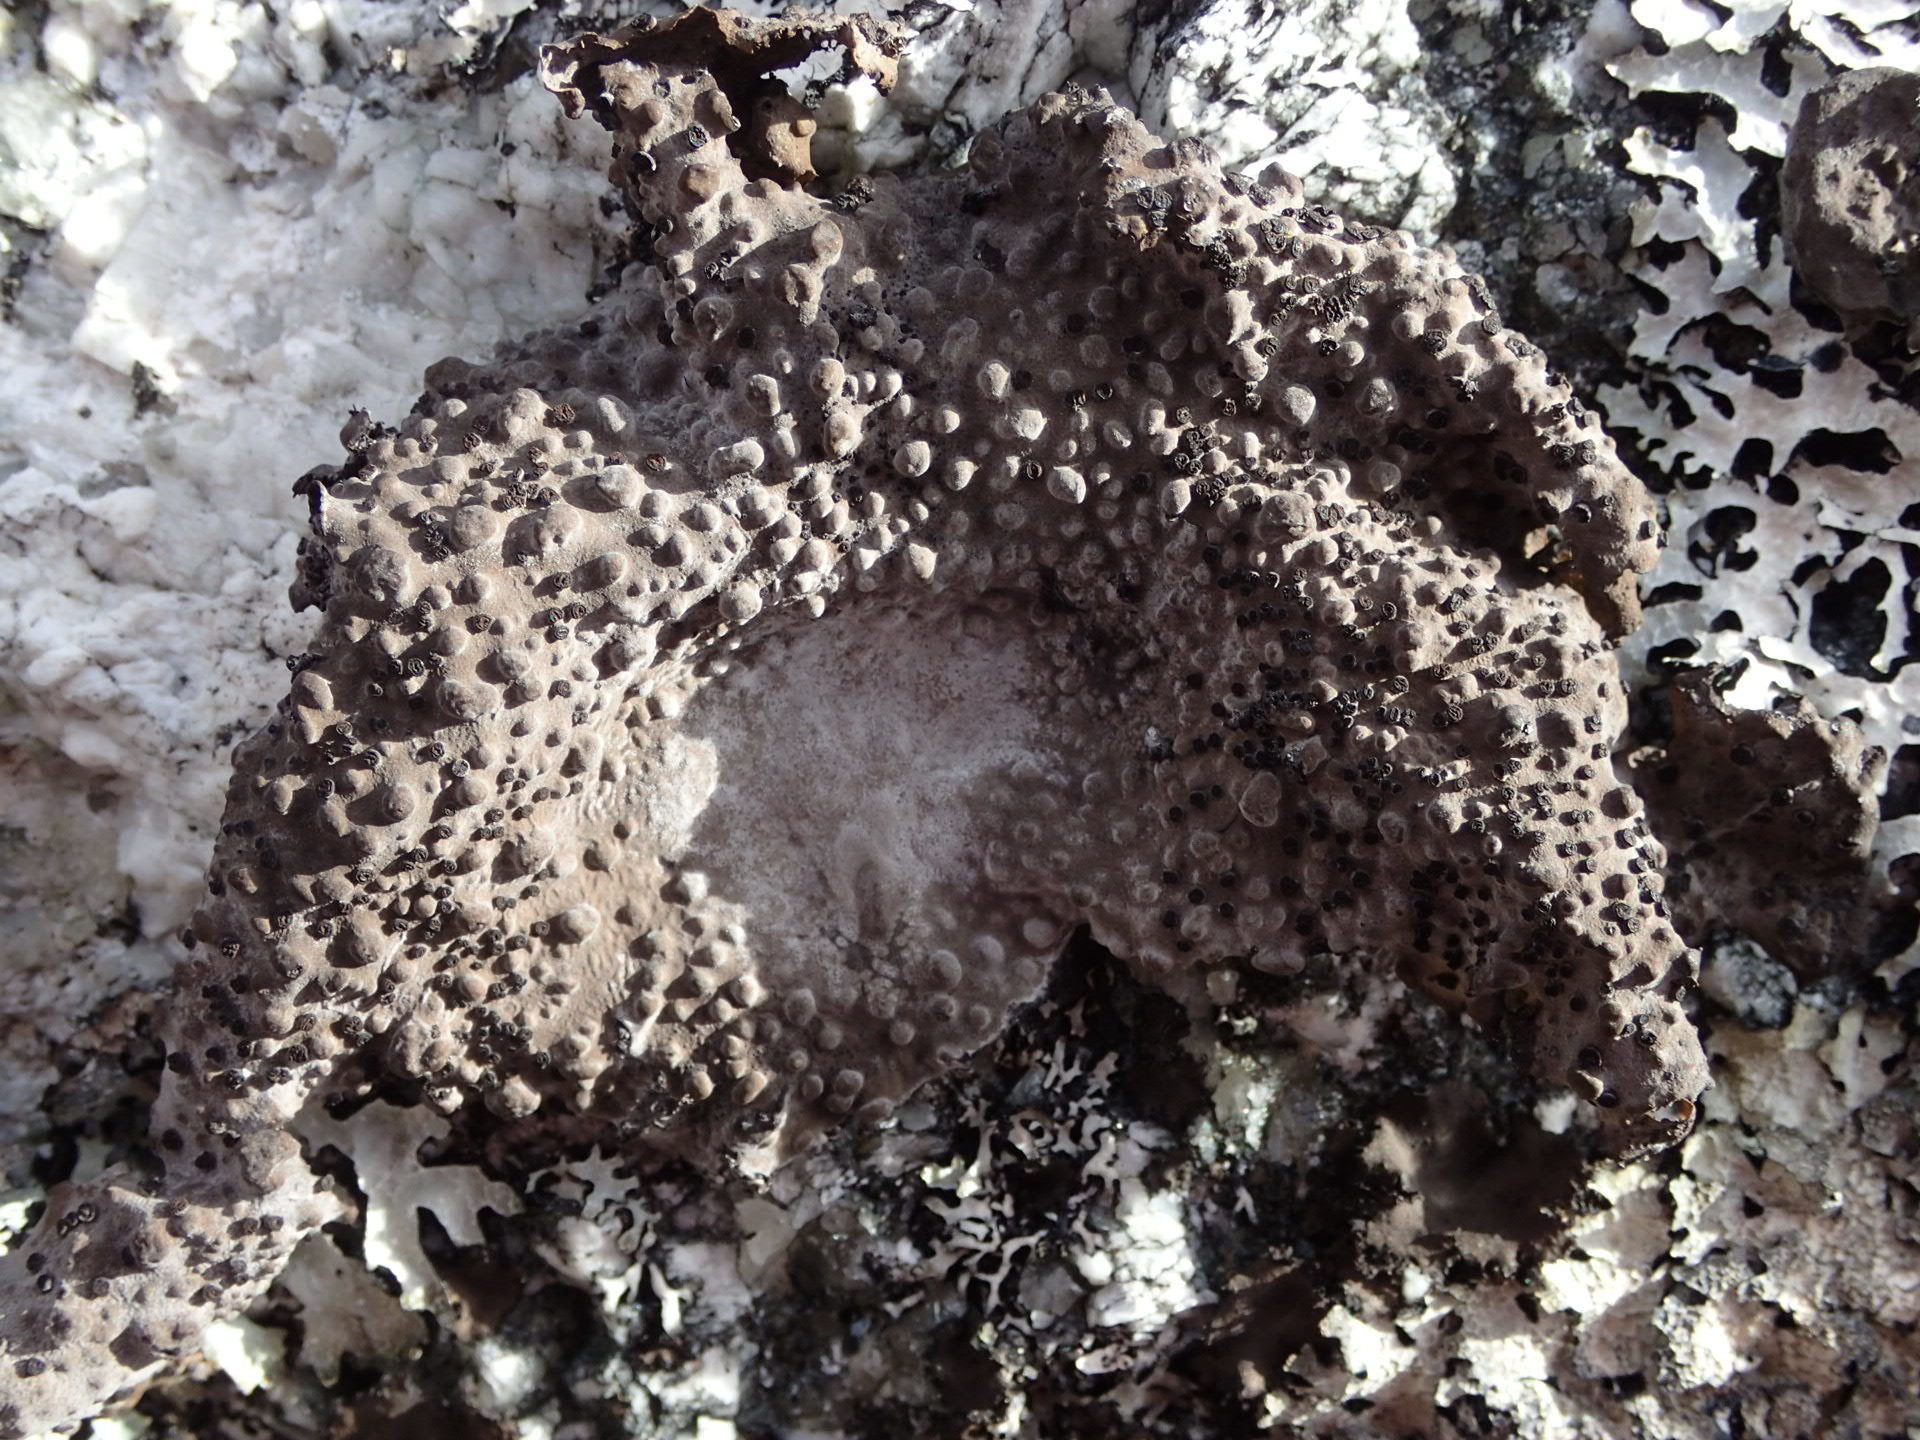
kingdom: Fungi
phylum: Ascomycota
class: Lecanoromycetes
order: Umbilicariales
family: Umbilicariaceae
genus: Lasallia
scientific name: Lasallia papulosa
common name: Common toadskin lichen
